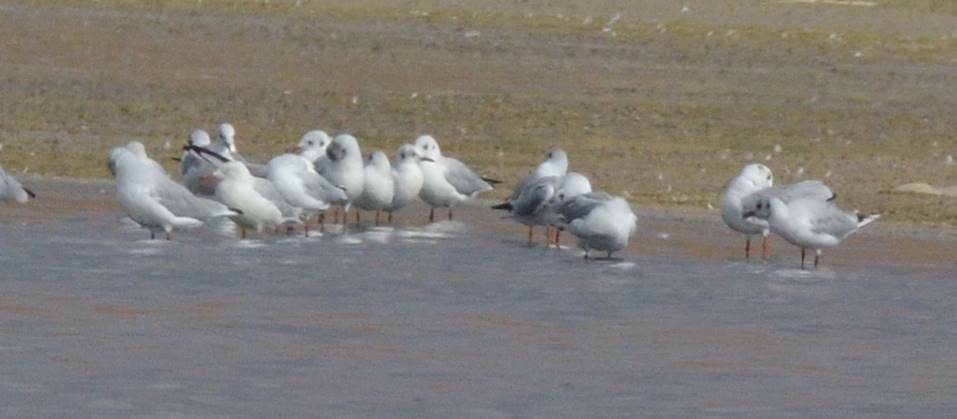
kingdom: Animalia
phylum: Chordata
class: Aves
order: Charadriiformes
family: Laridae
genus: Chroicocephalus
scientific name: Chroicocephalus ridibundus
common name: Black-headed gull
